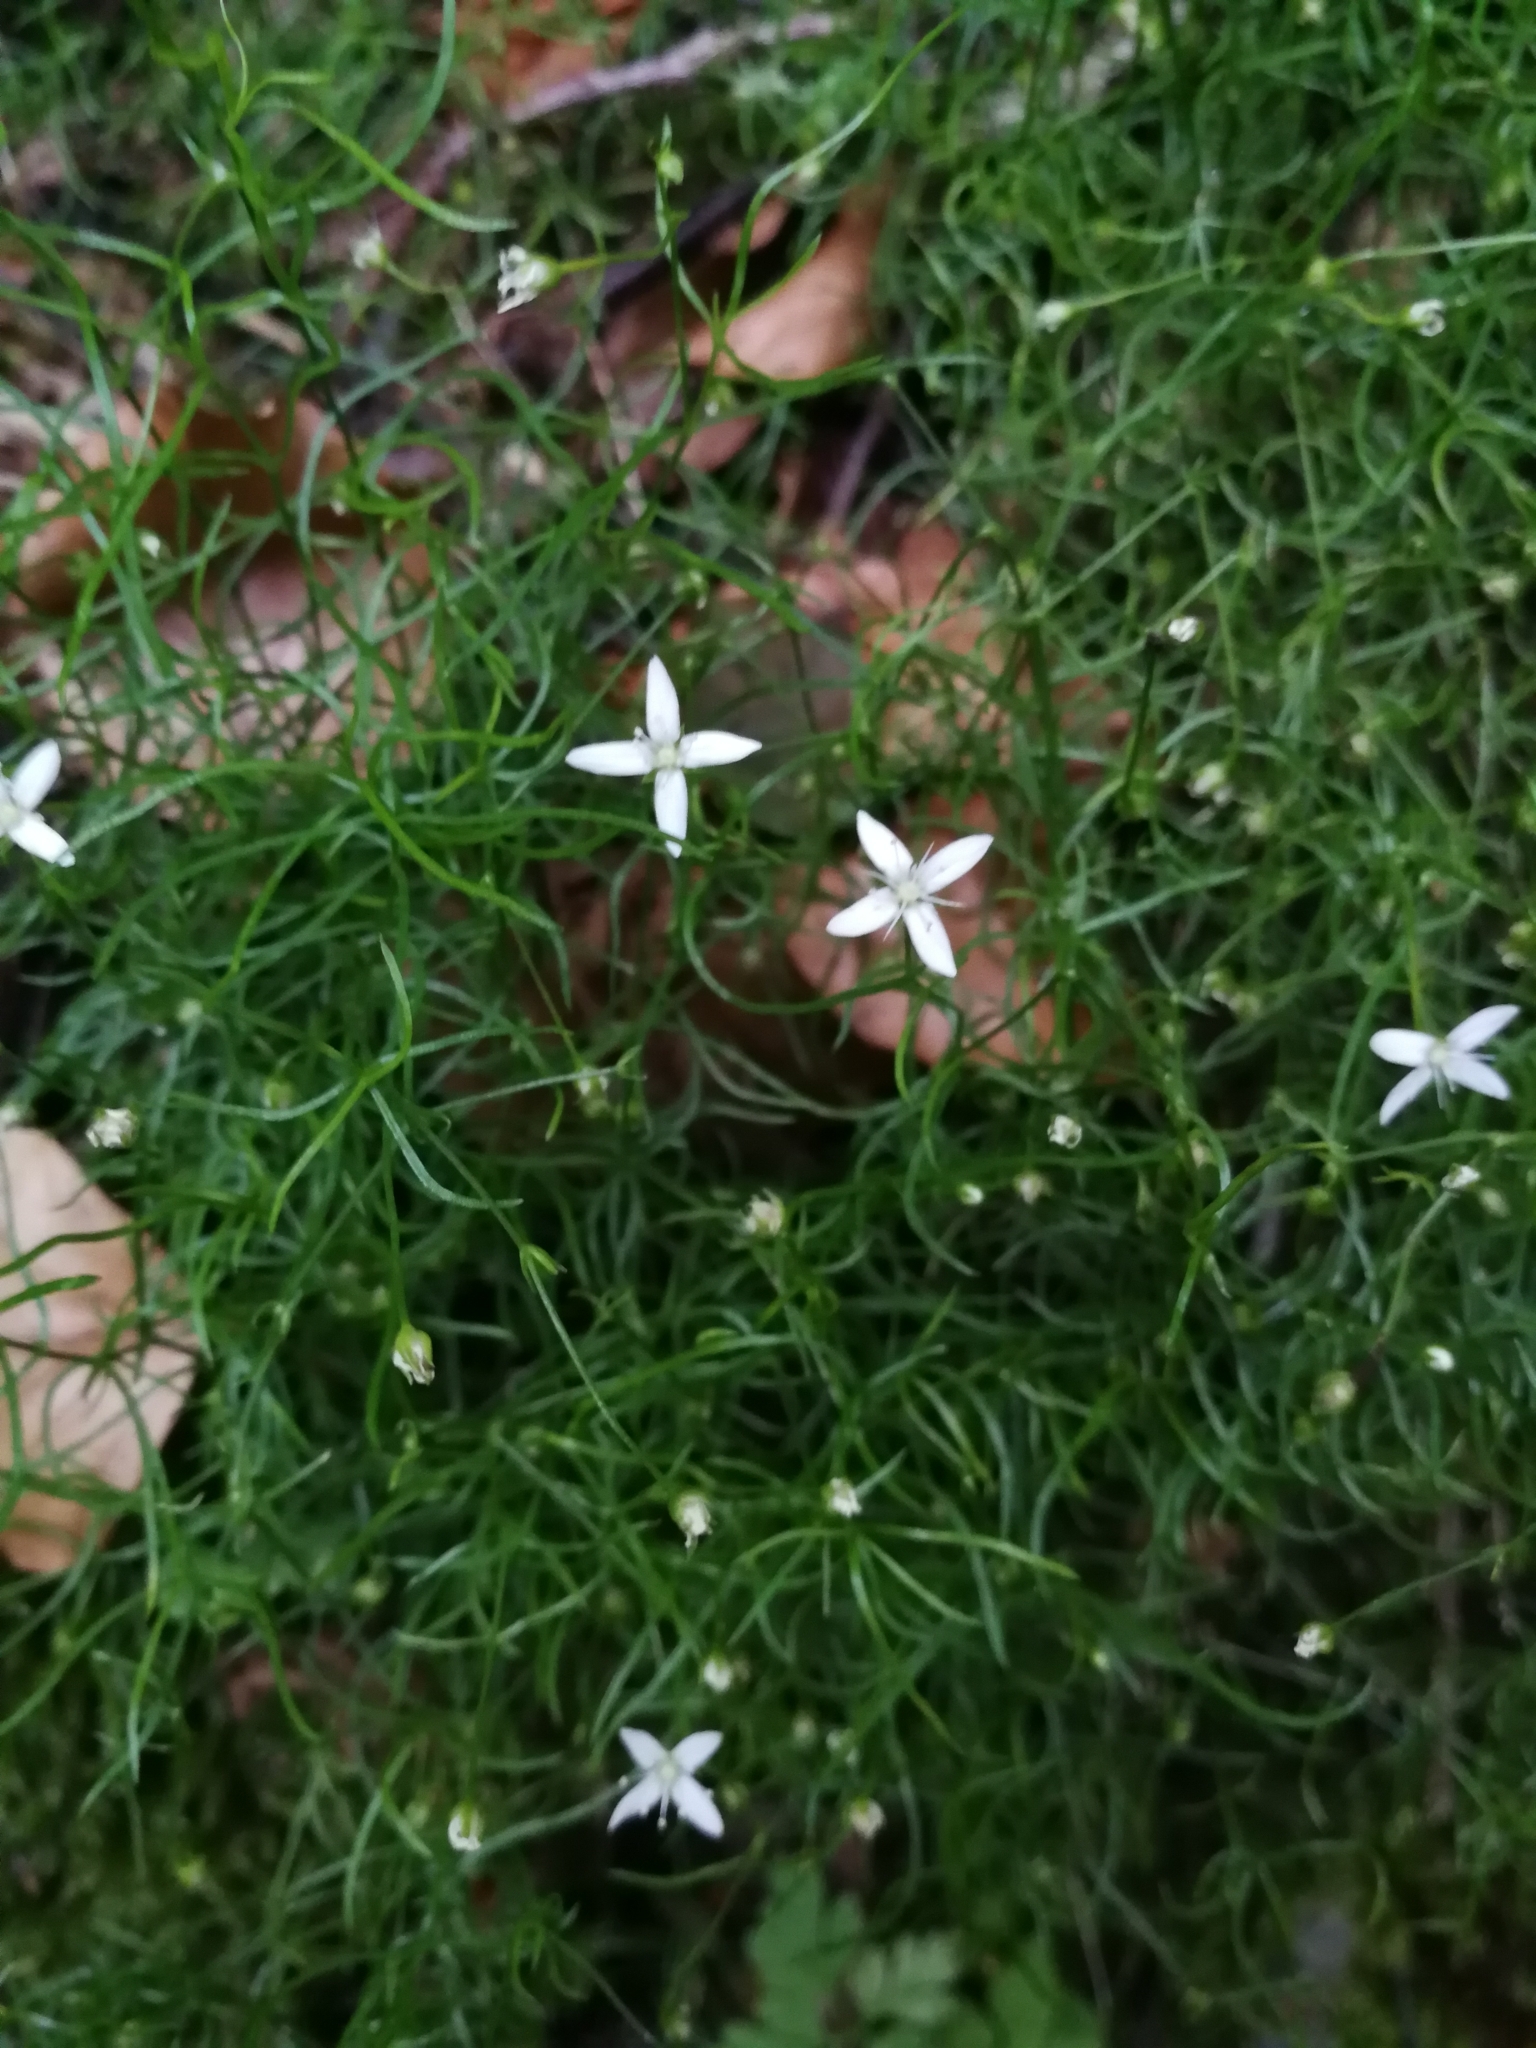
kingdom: Plantae
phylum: Tracheophyta
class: Magnoliopsida
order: Caryophyllales
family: Caryophyllaceae
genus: Moehringia
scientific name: Moehringia muscosa
